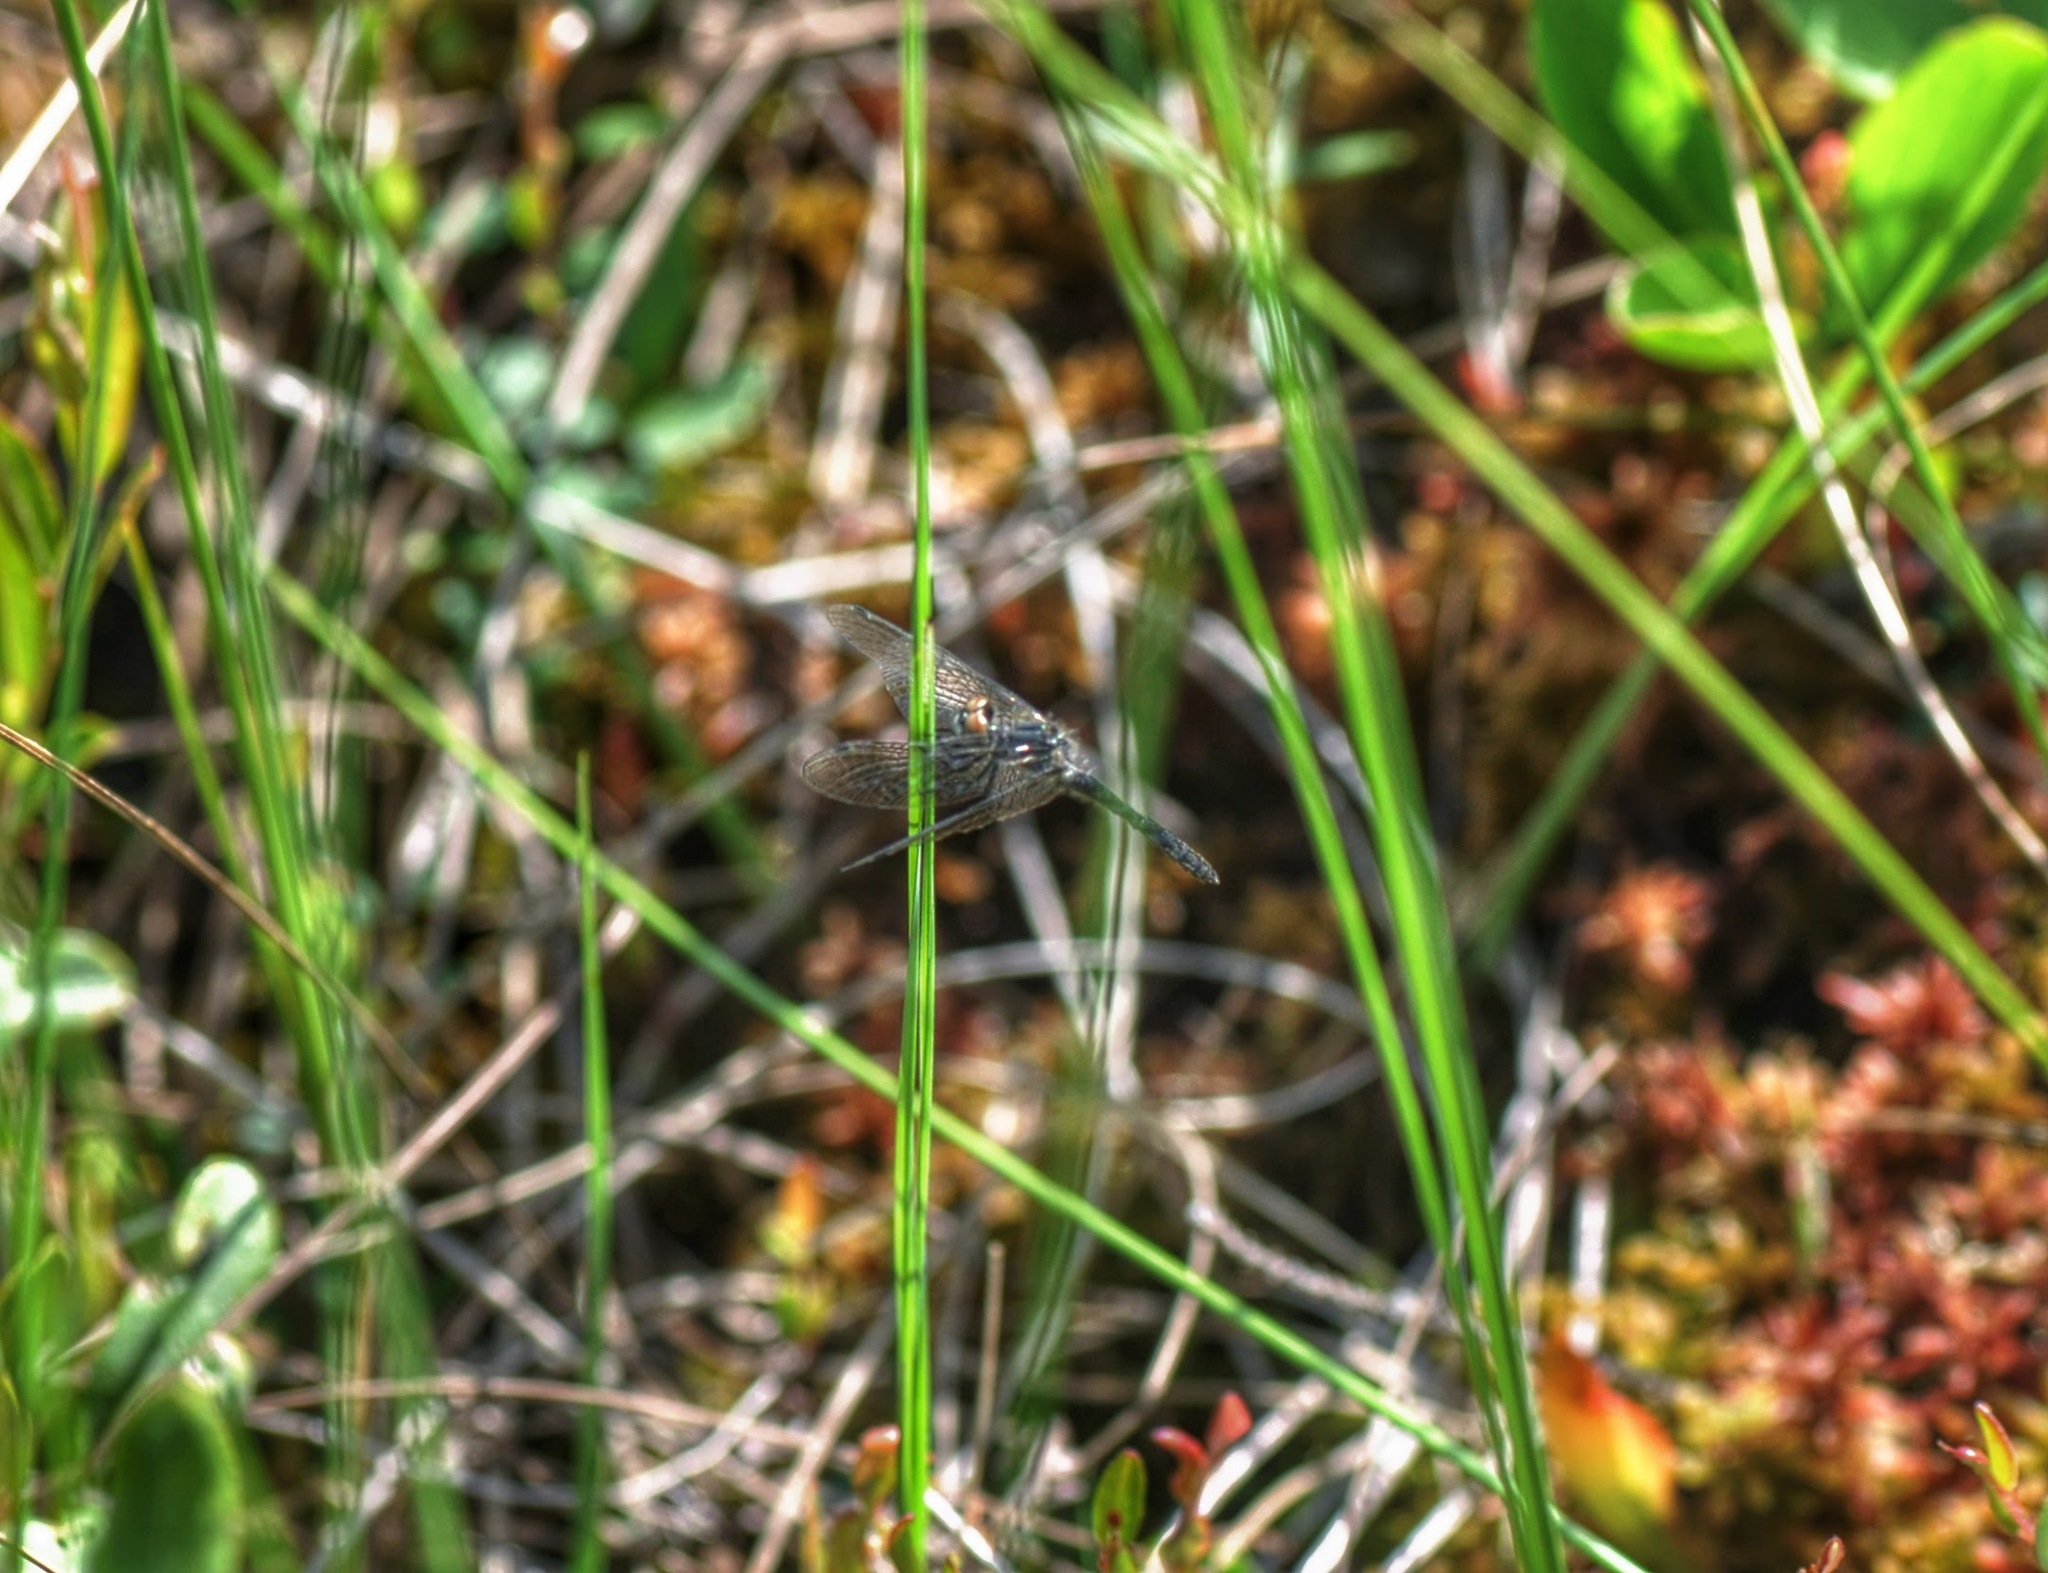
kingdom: Animalia
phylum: Arthropoda
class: Insecta
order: Odonata
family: Libellulidae
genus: Nannothemis
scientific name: Nannothemis bella
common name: Elfin skimmer
